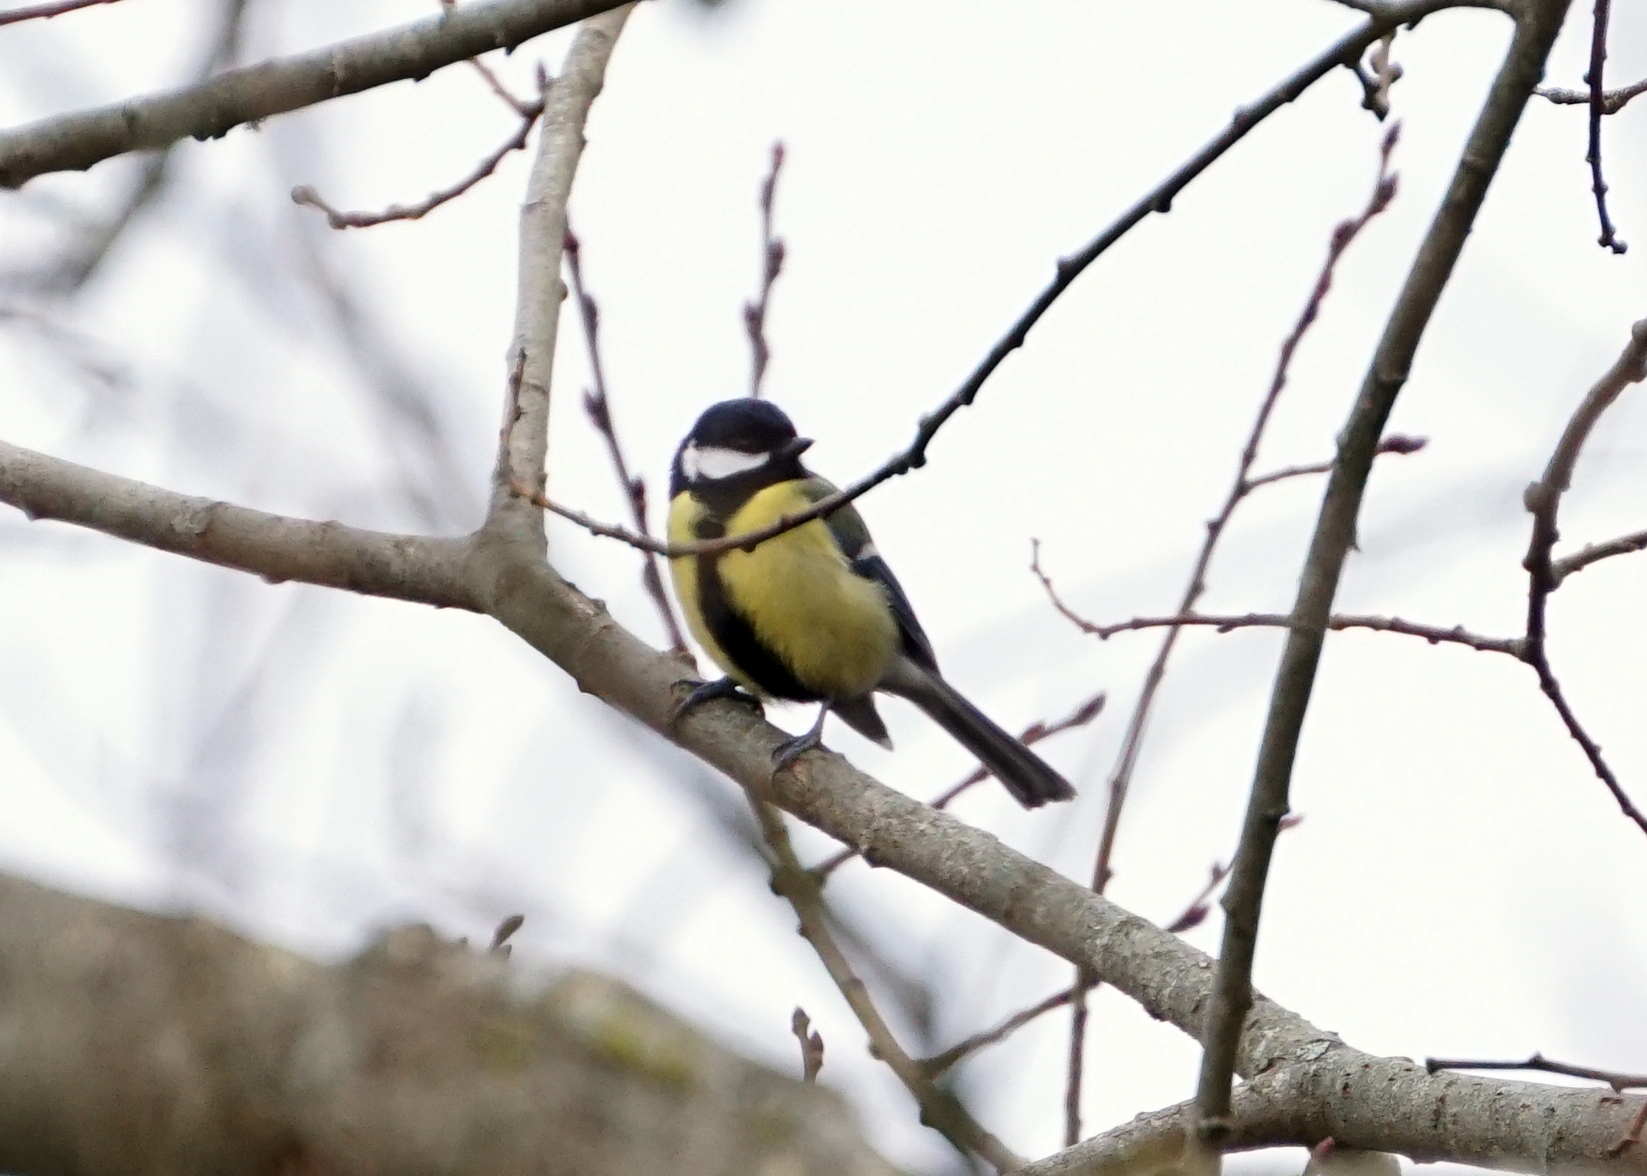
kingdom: Animalia
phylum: Chordata
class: Aves
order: Passeriformes
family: Paridae
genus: Parus
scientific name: Parus major
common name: Great tit
